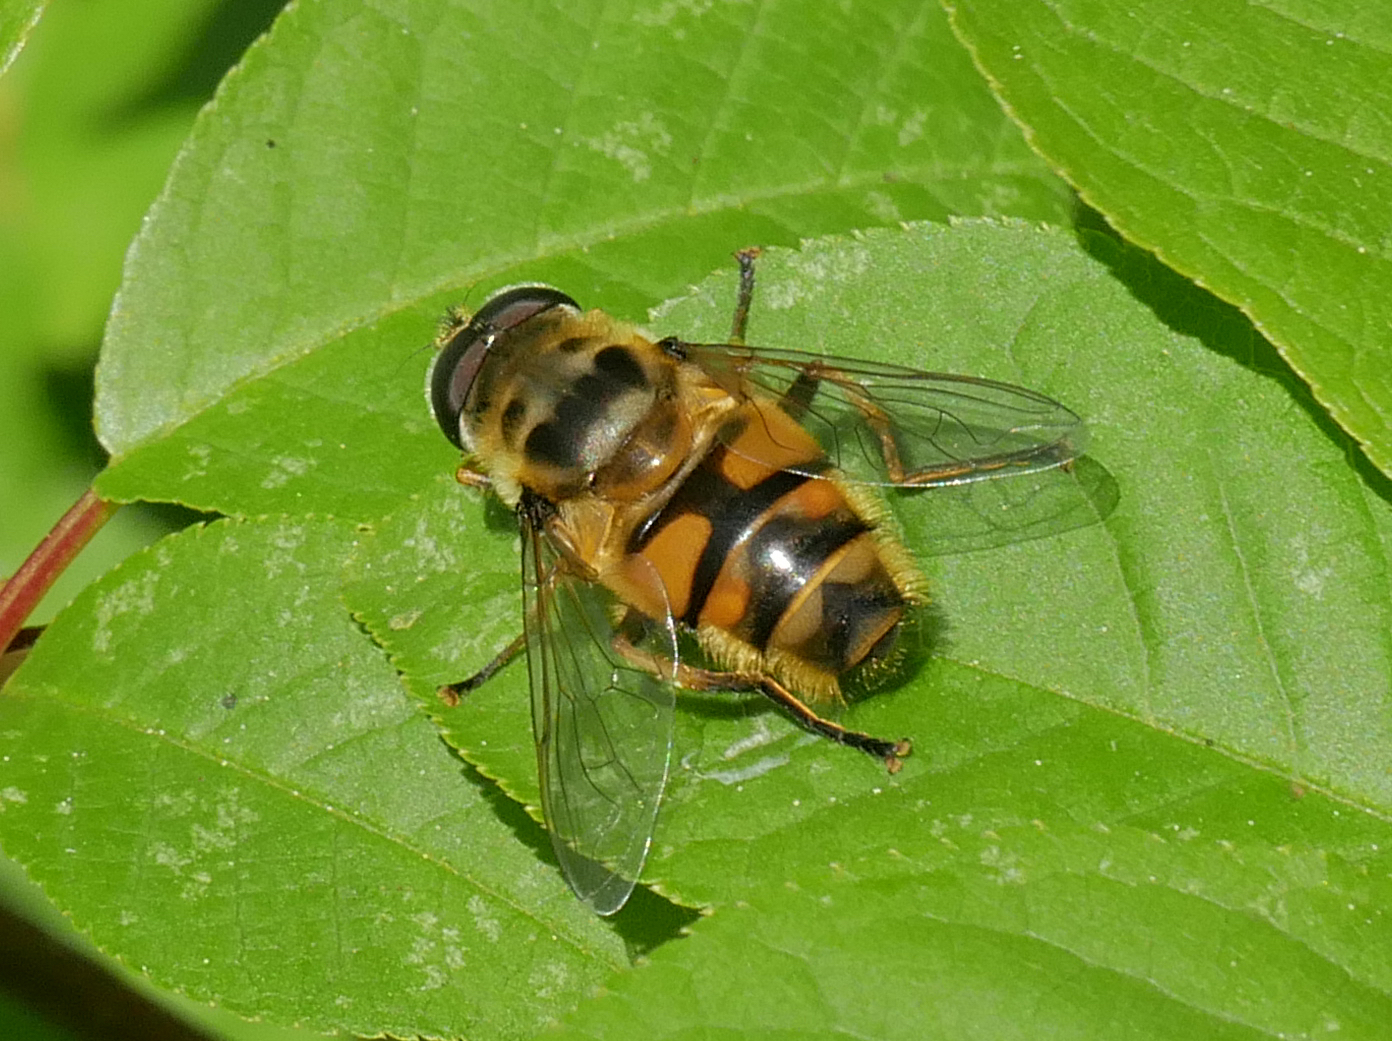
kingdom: Animalia
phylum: Arthropoda
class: Insecta
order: Diptera
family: Syrphidae
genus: Myathropa
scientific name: Myathropa florea
